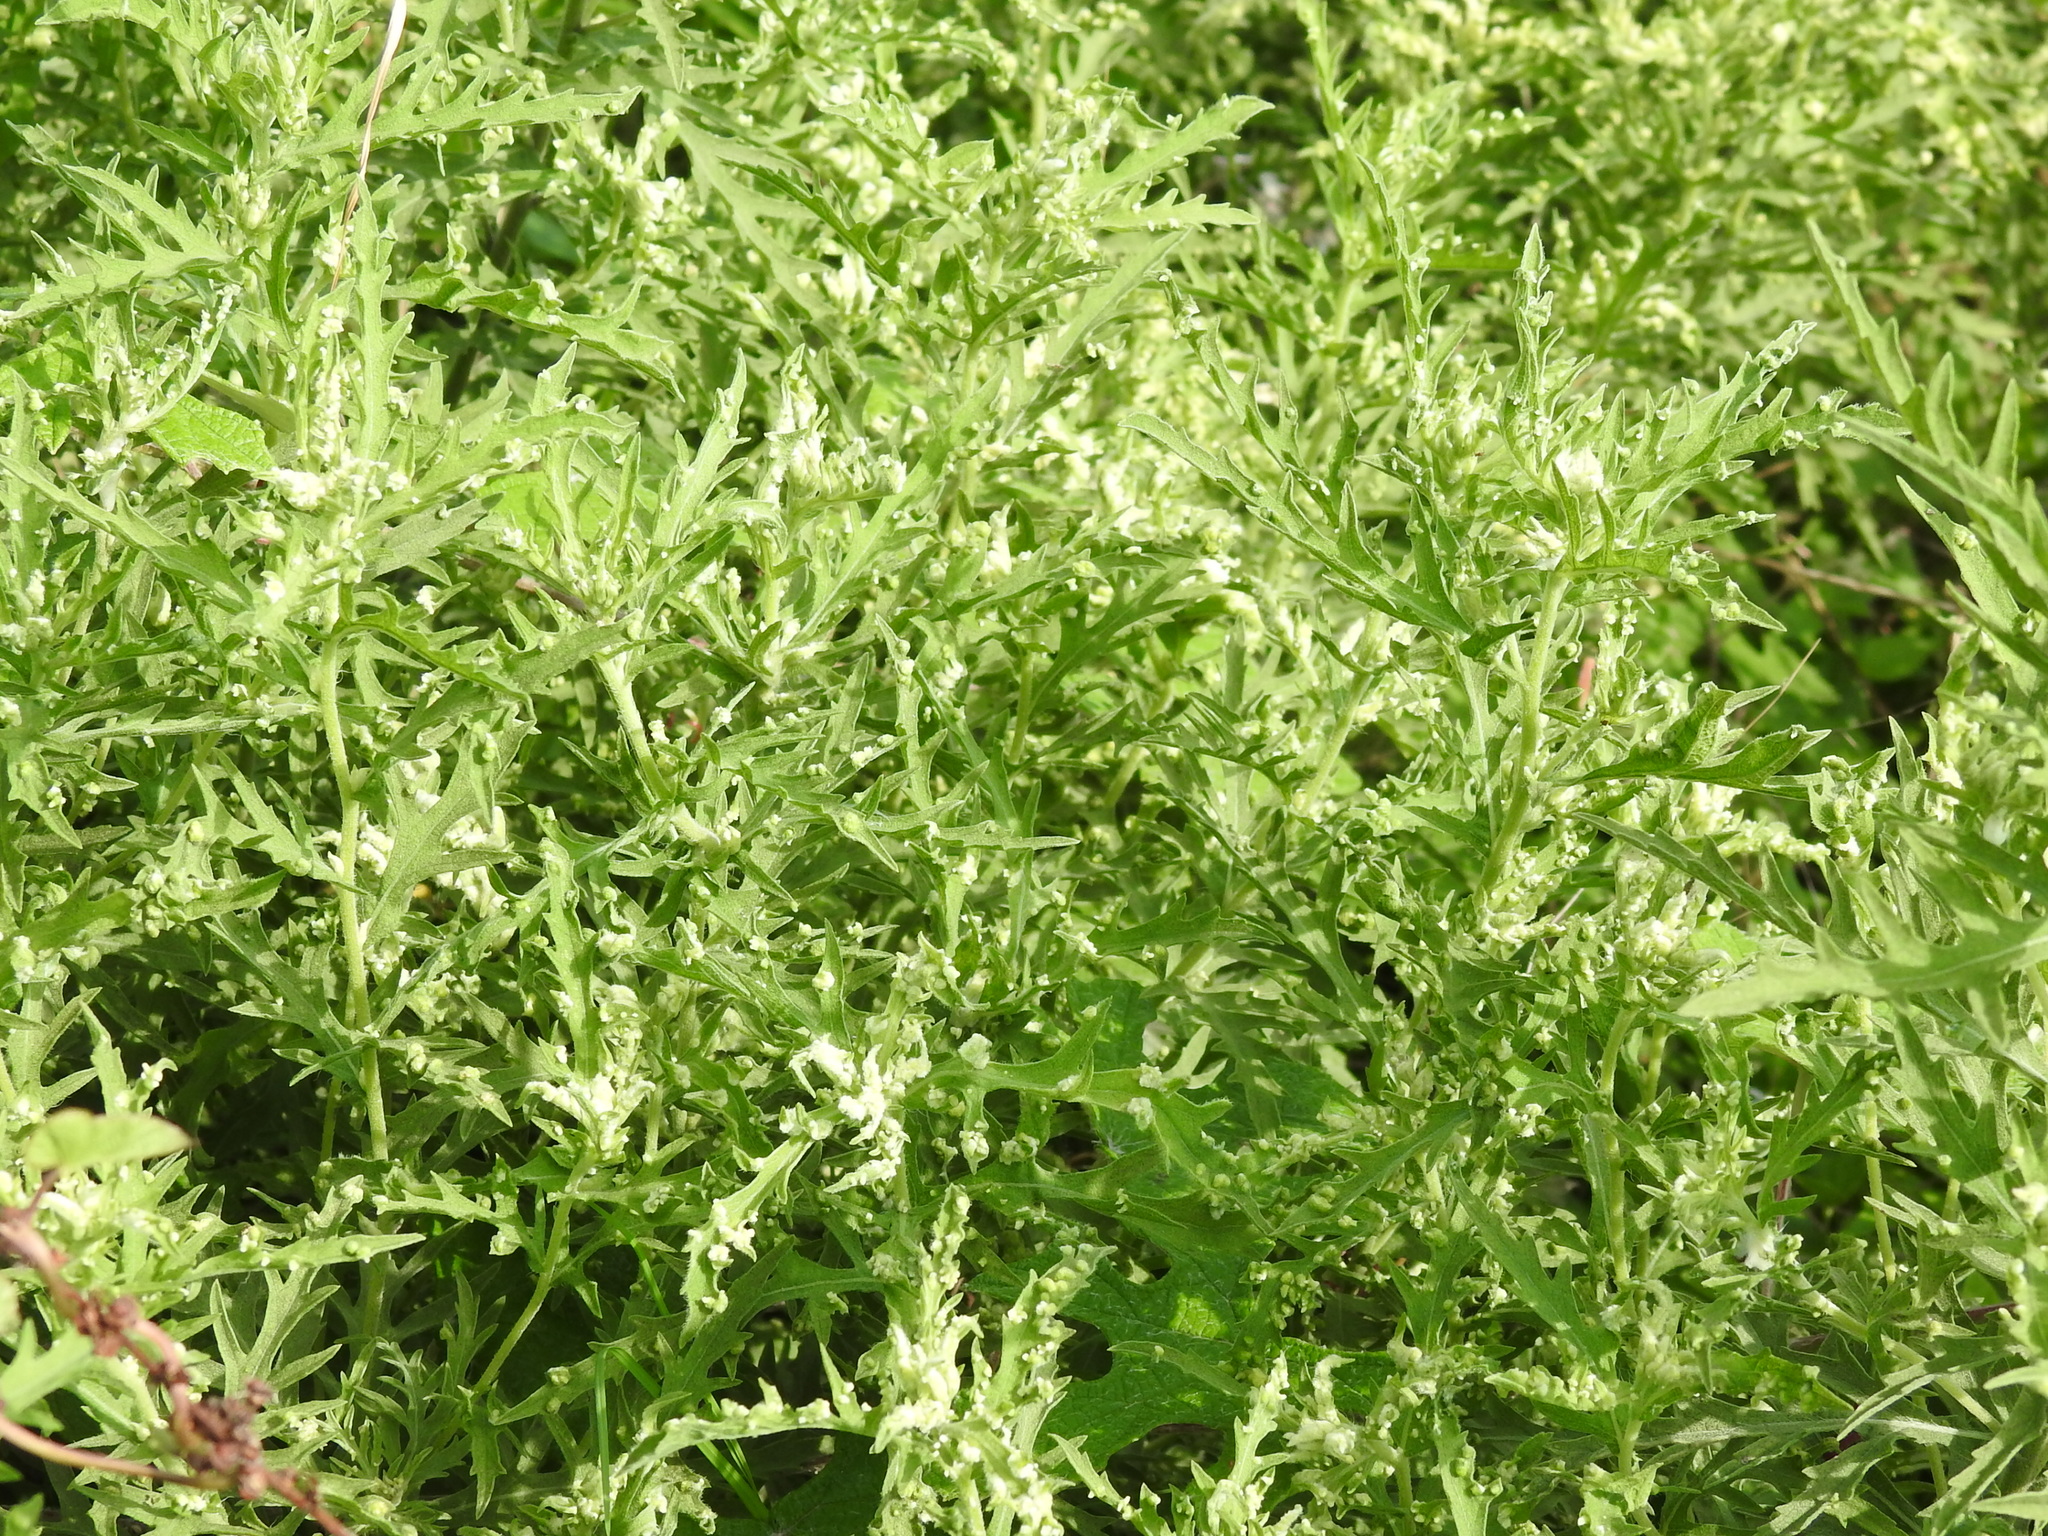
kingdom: Animalia
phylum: Arthropoda
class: Arachnida
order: Trombidiformes
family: Eriophyidae
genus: Aceria
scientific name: Aceria
